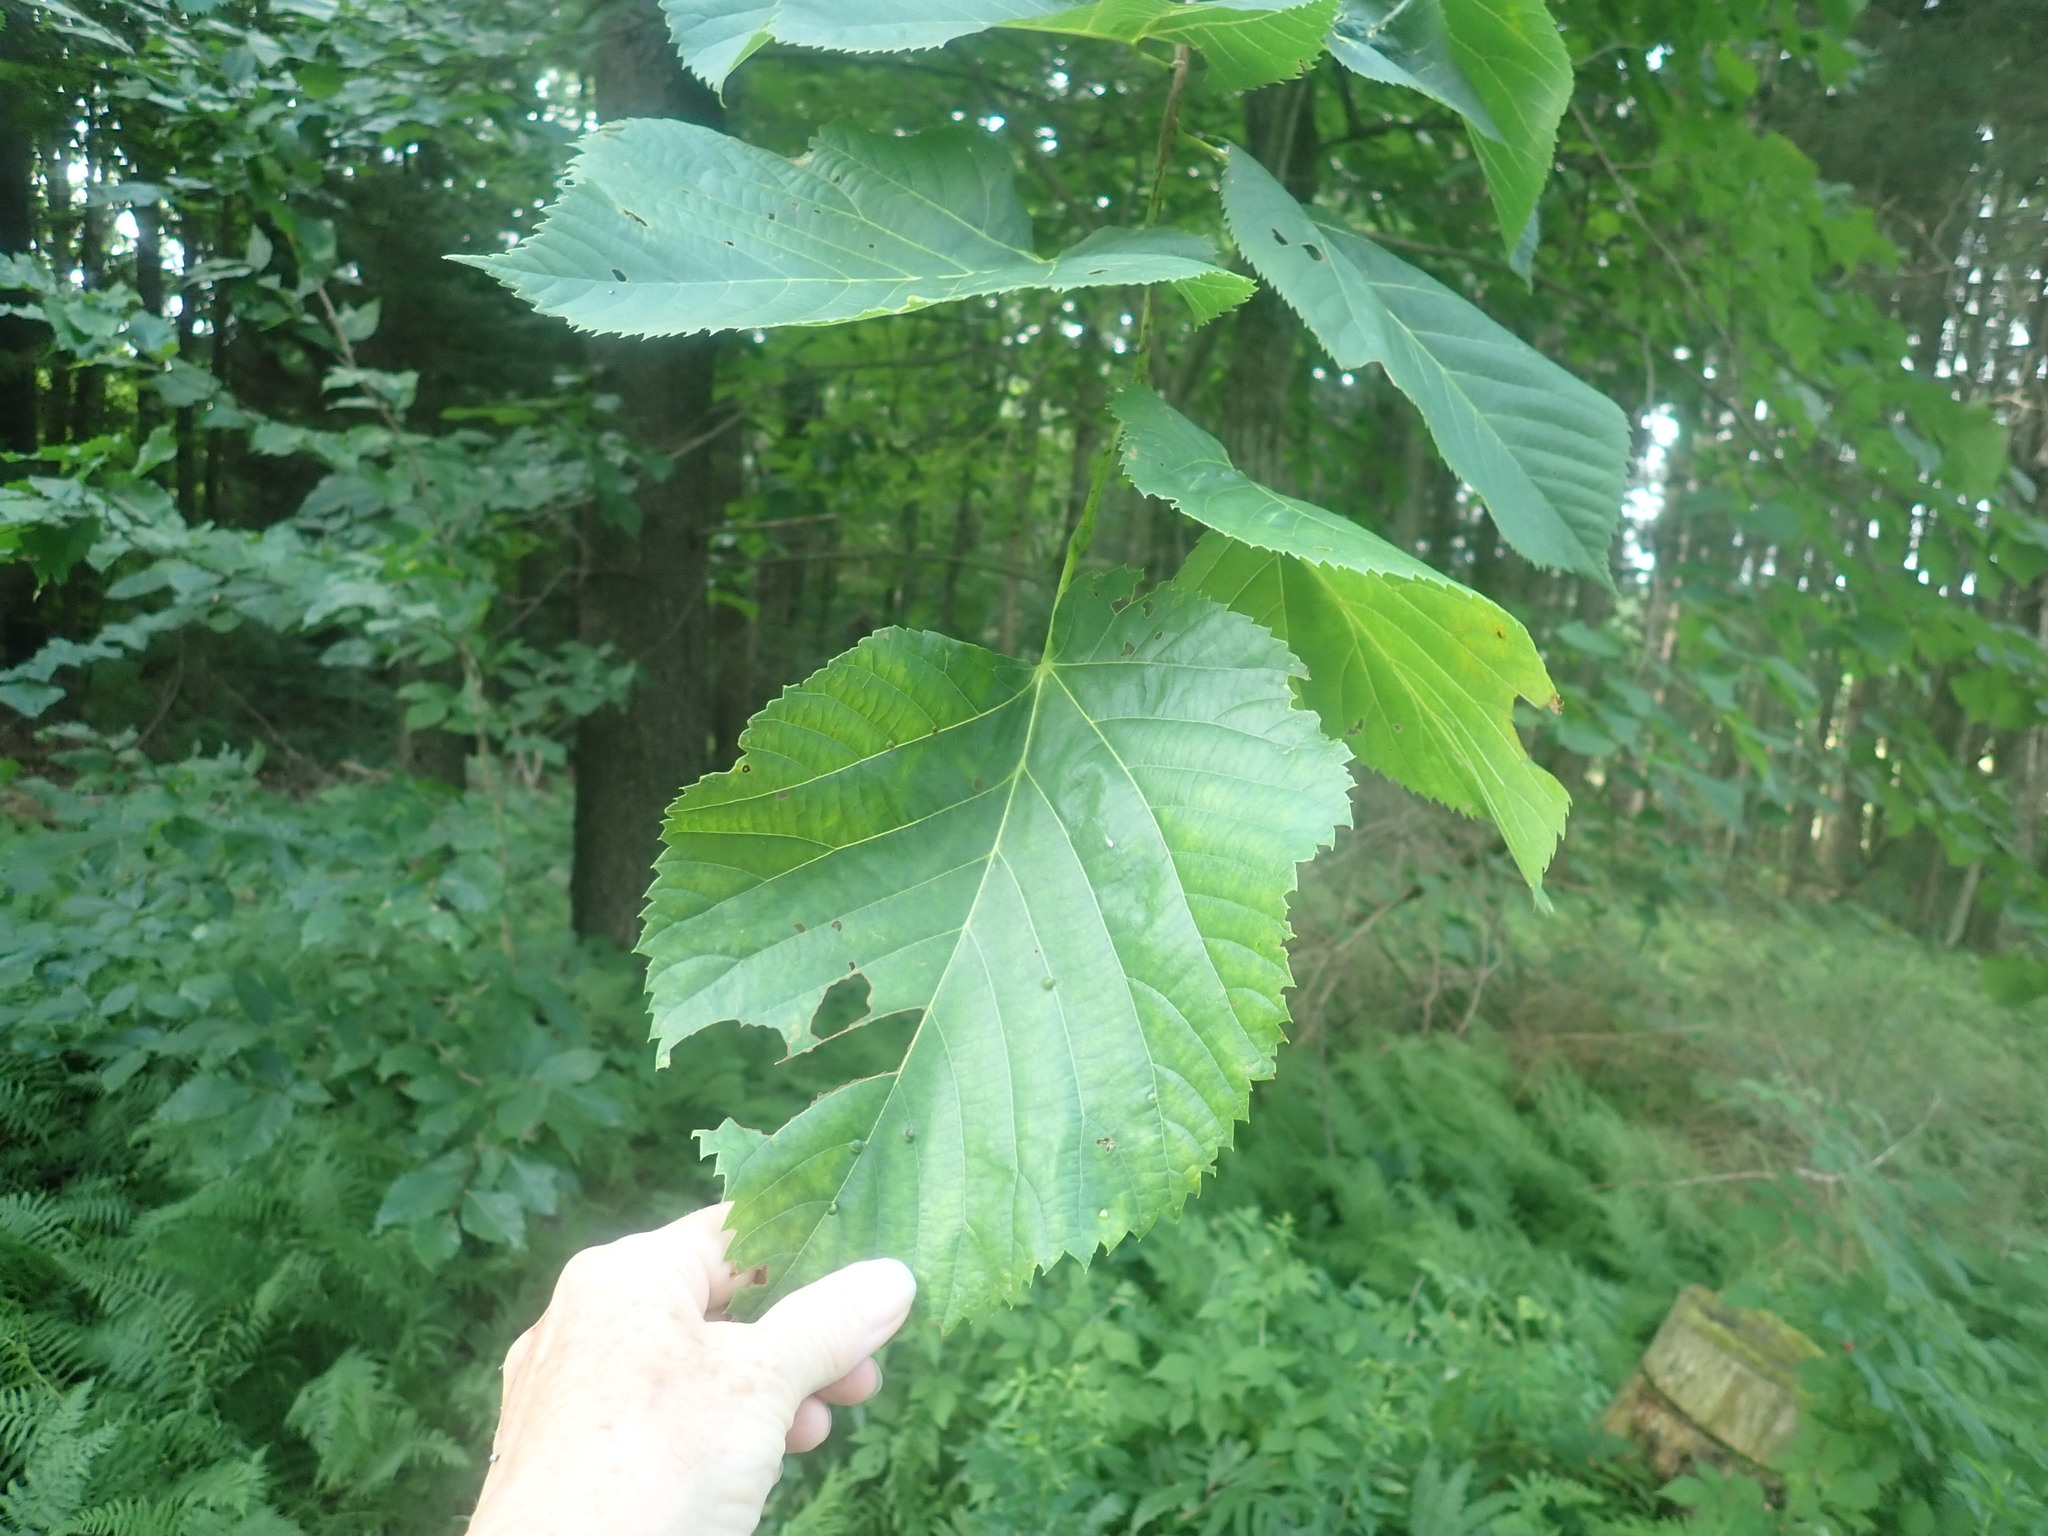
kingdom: Plantae
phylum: Tracheophyta
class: Magnoliopsida
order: Malvales
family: Malvaceae
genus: Tilia
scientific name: Tilia americana
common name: Basswood
